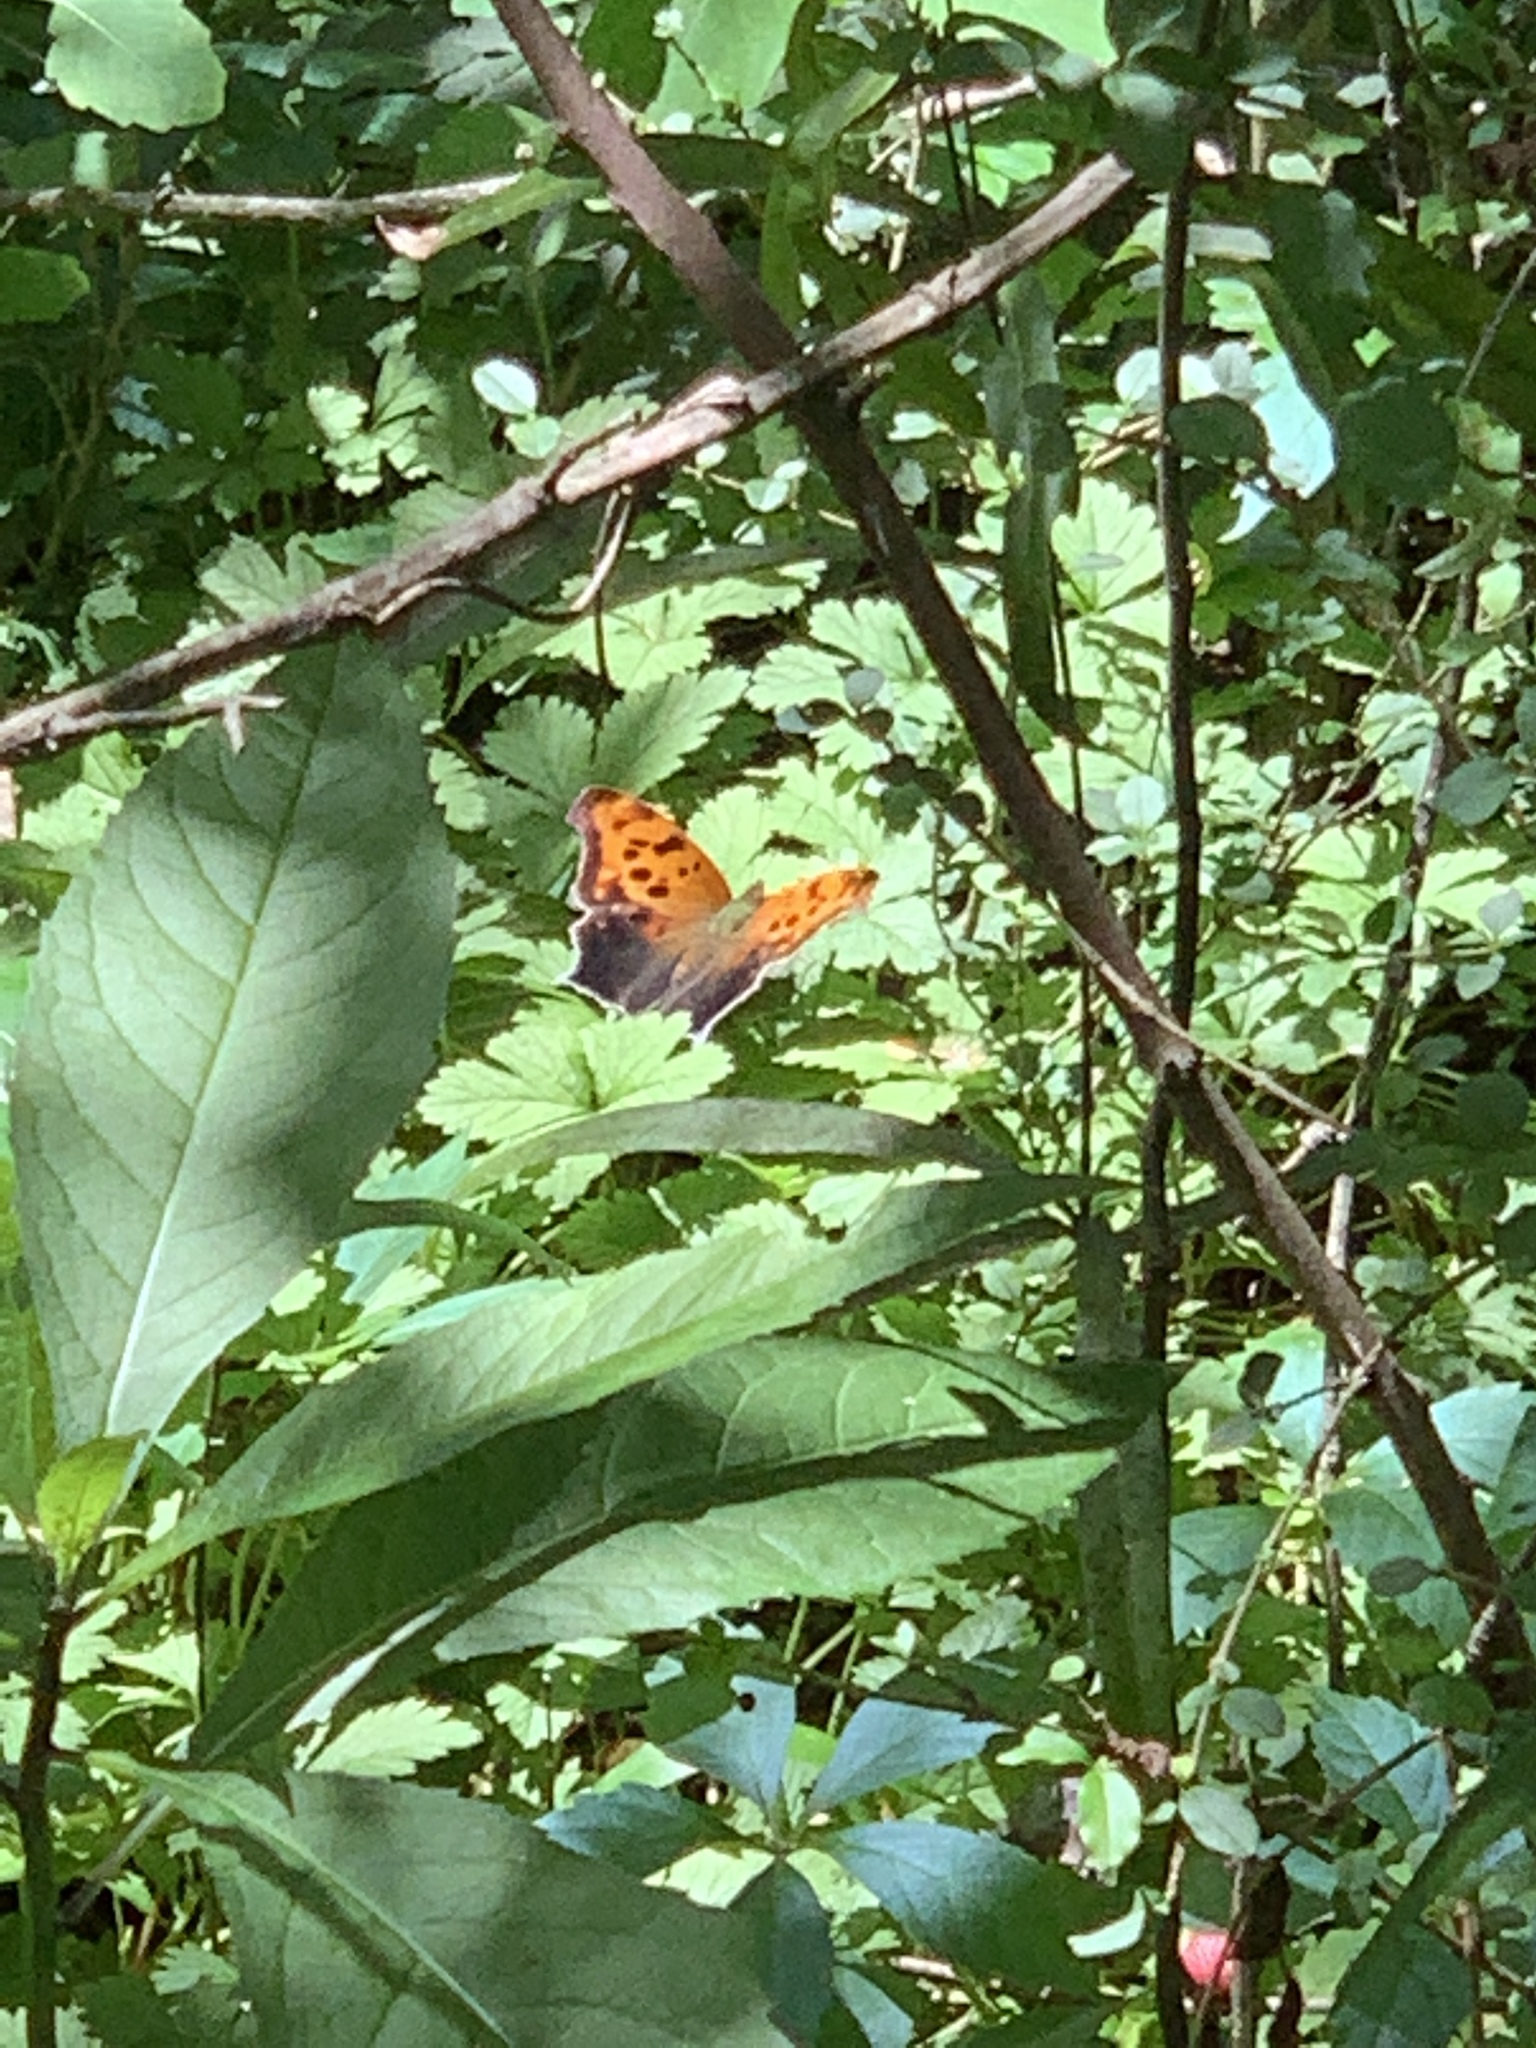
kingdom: Animalia
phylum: Arthropoda
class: Insecta
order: Lepidoptera
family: Nymphalidae
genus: Polygonia
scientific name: Polygonia interrogationis
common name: Question mark
